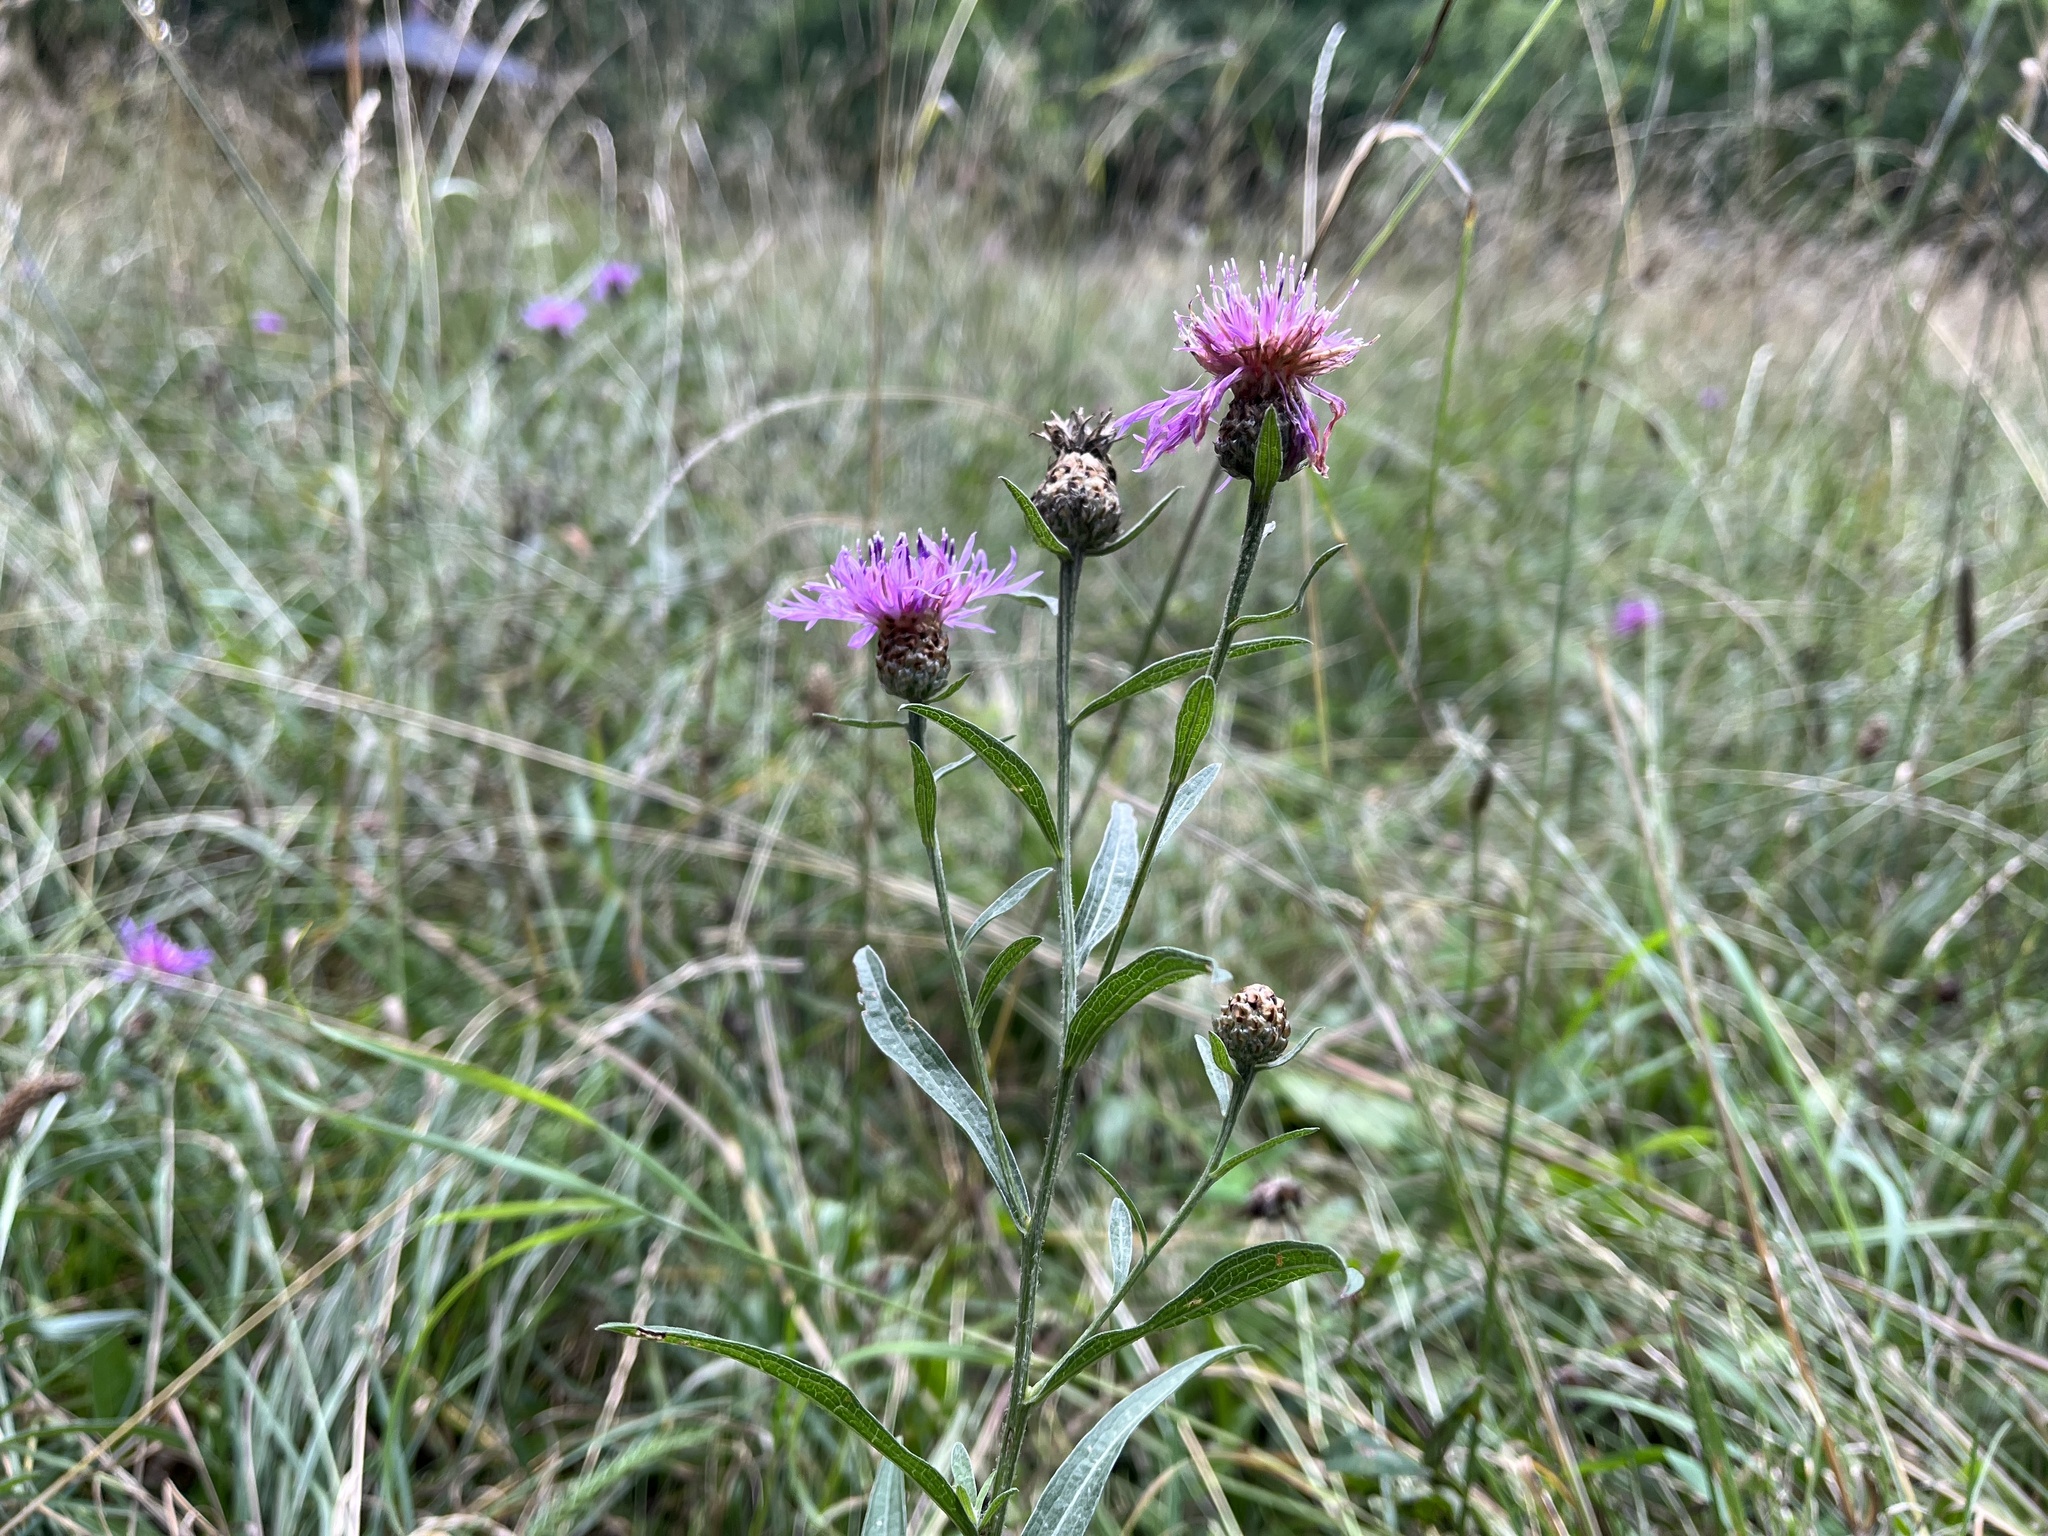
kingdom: Plantae
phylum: Tracheophyta
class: Magnoliopsida
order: Asterales
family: Asteraceae
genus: Centaurea
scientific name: Centaurea jacea
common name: Brown knapweed
